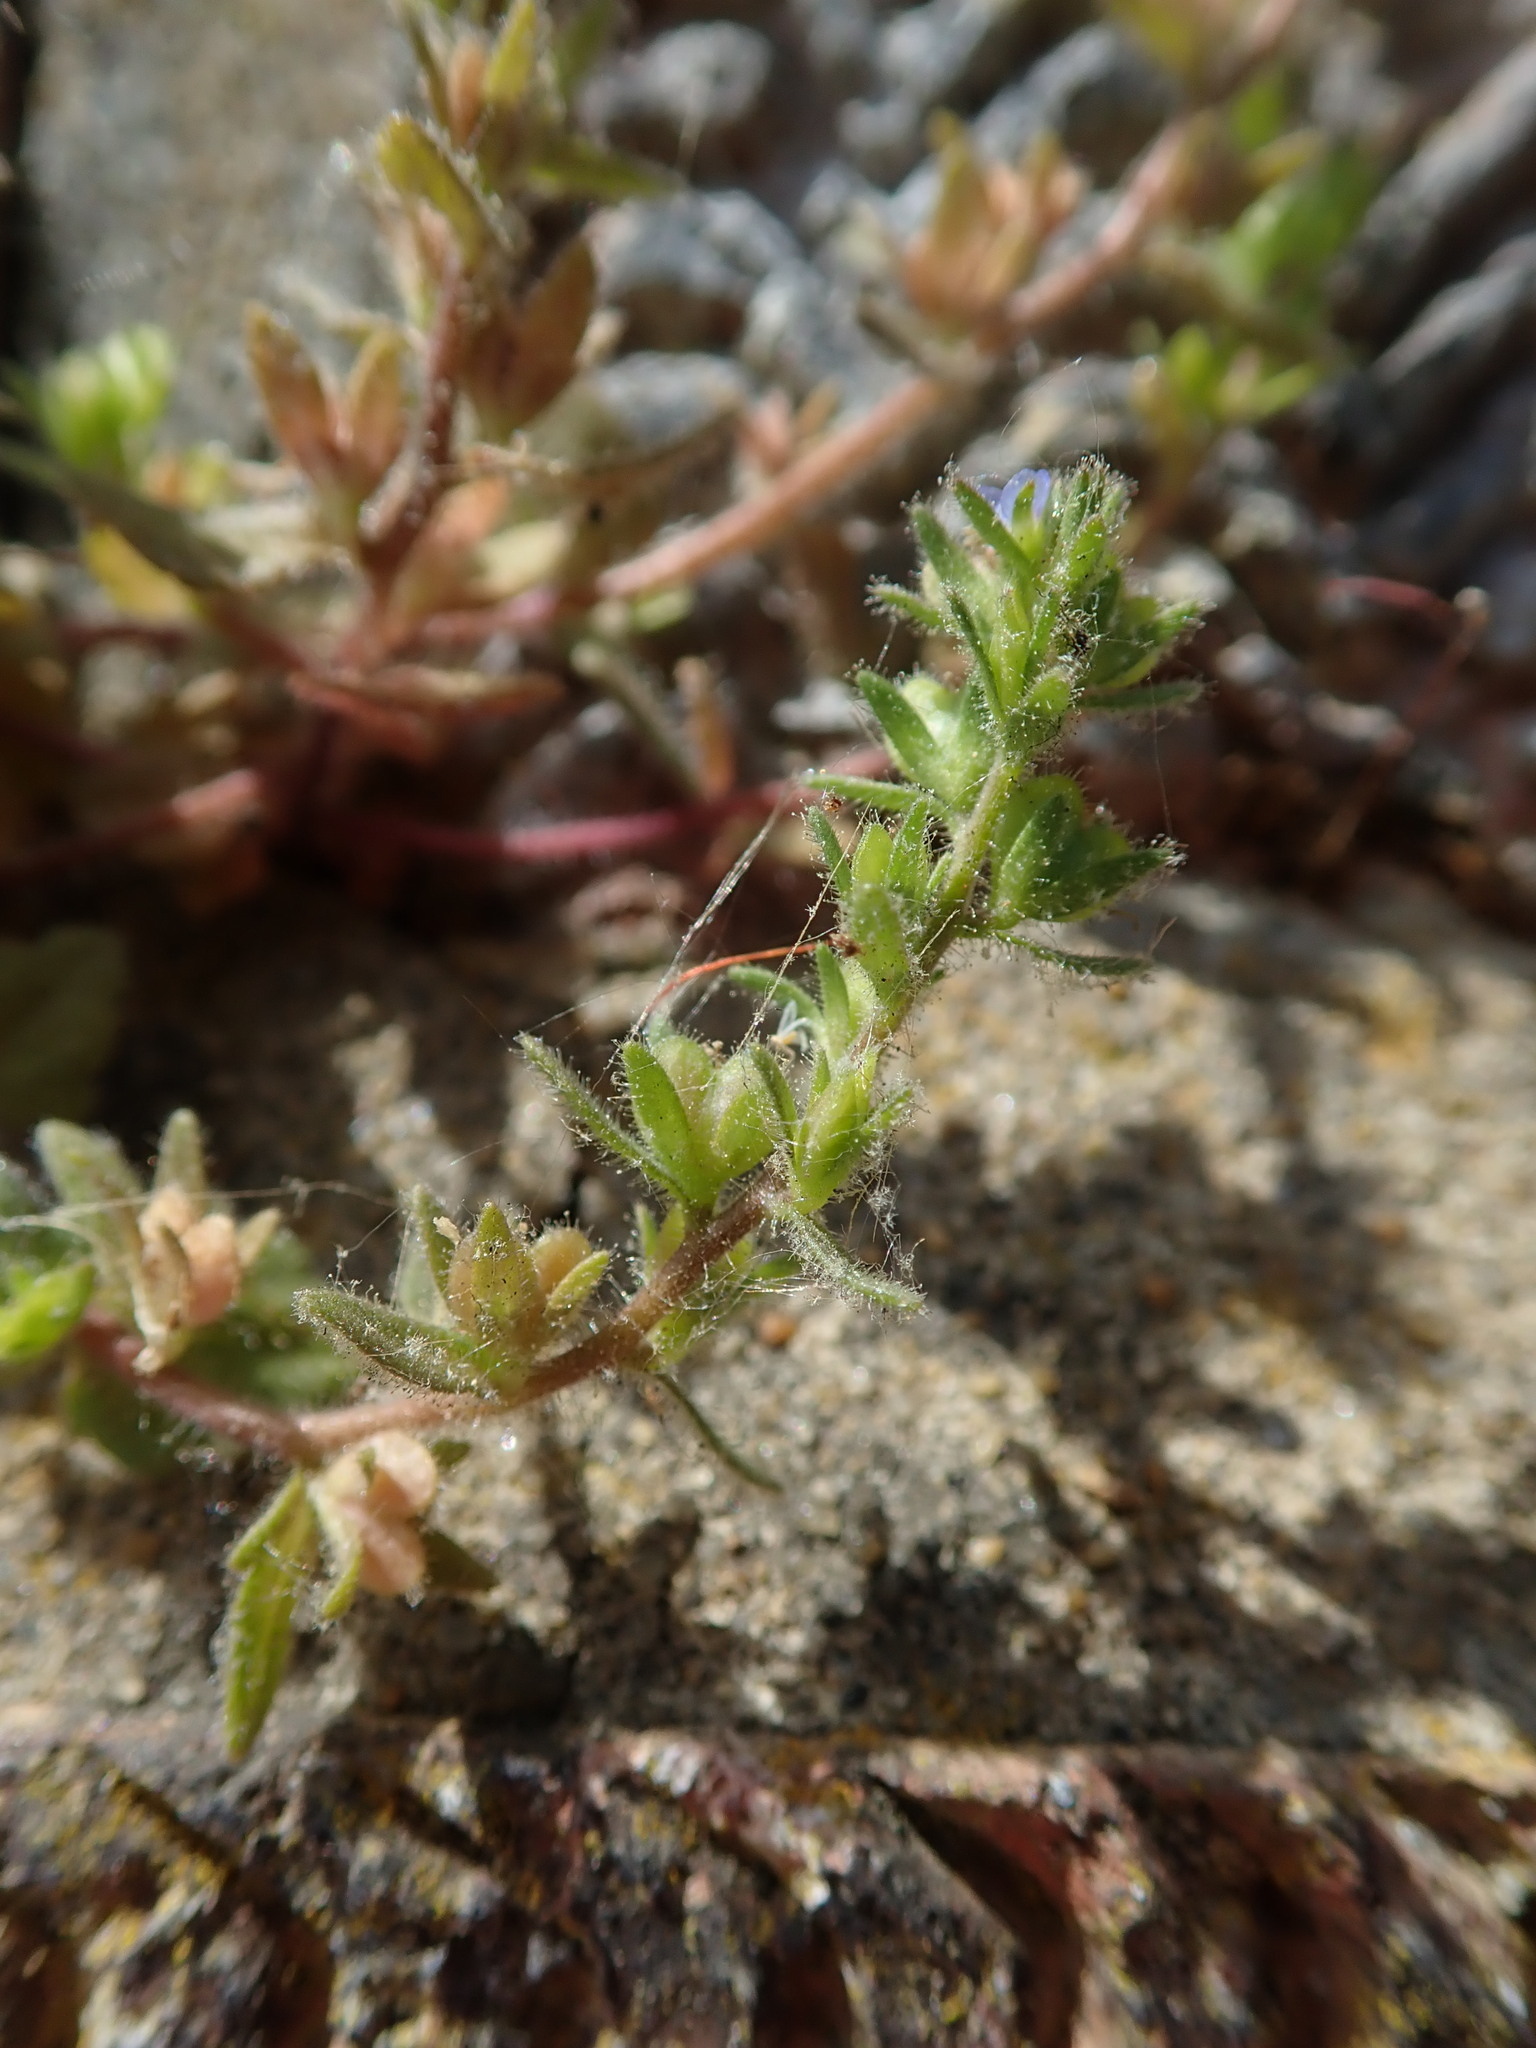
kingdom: Plantae
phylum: Tracheophyta
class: Magnoliopsida
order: Lamiales
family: Plantaginaceae
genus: Veronica
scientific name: Veronica arvensis
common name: Corn speedwell
